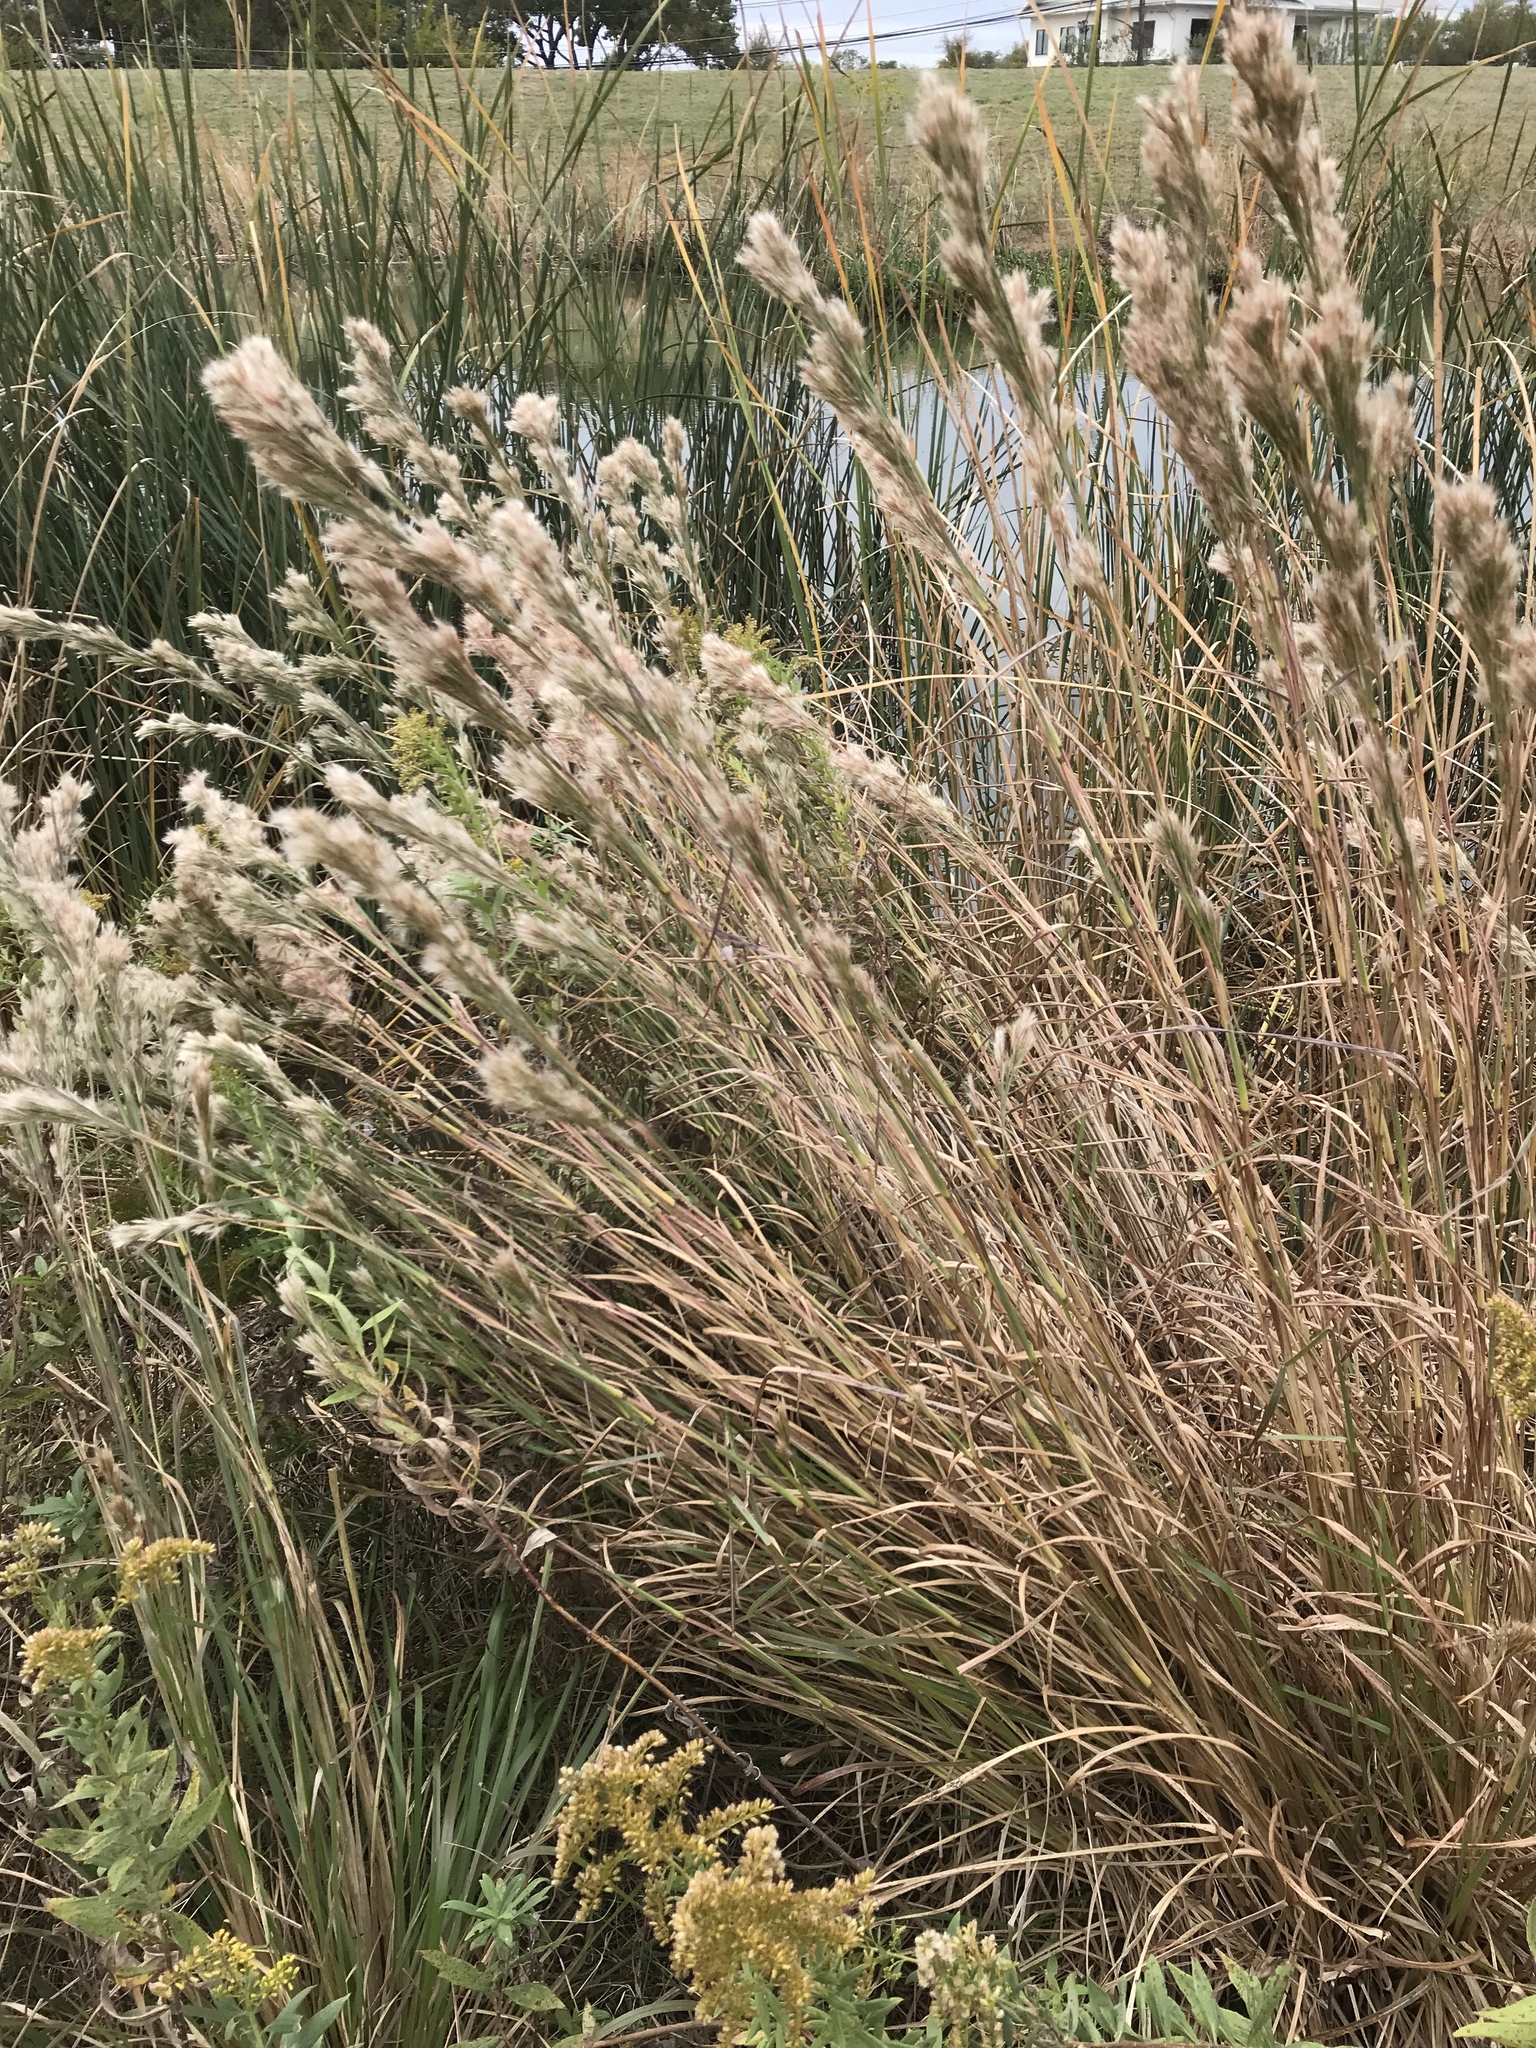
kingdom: Plantae
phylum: Tracheophyta
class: Liliopsida
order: Poales
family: Poaceae
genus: Andropogon
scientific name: Andropogon tenuispatheus
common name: Bushy bluestem
